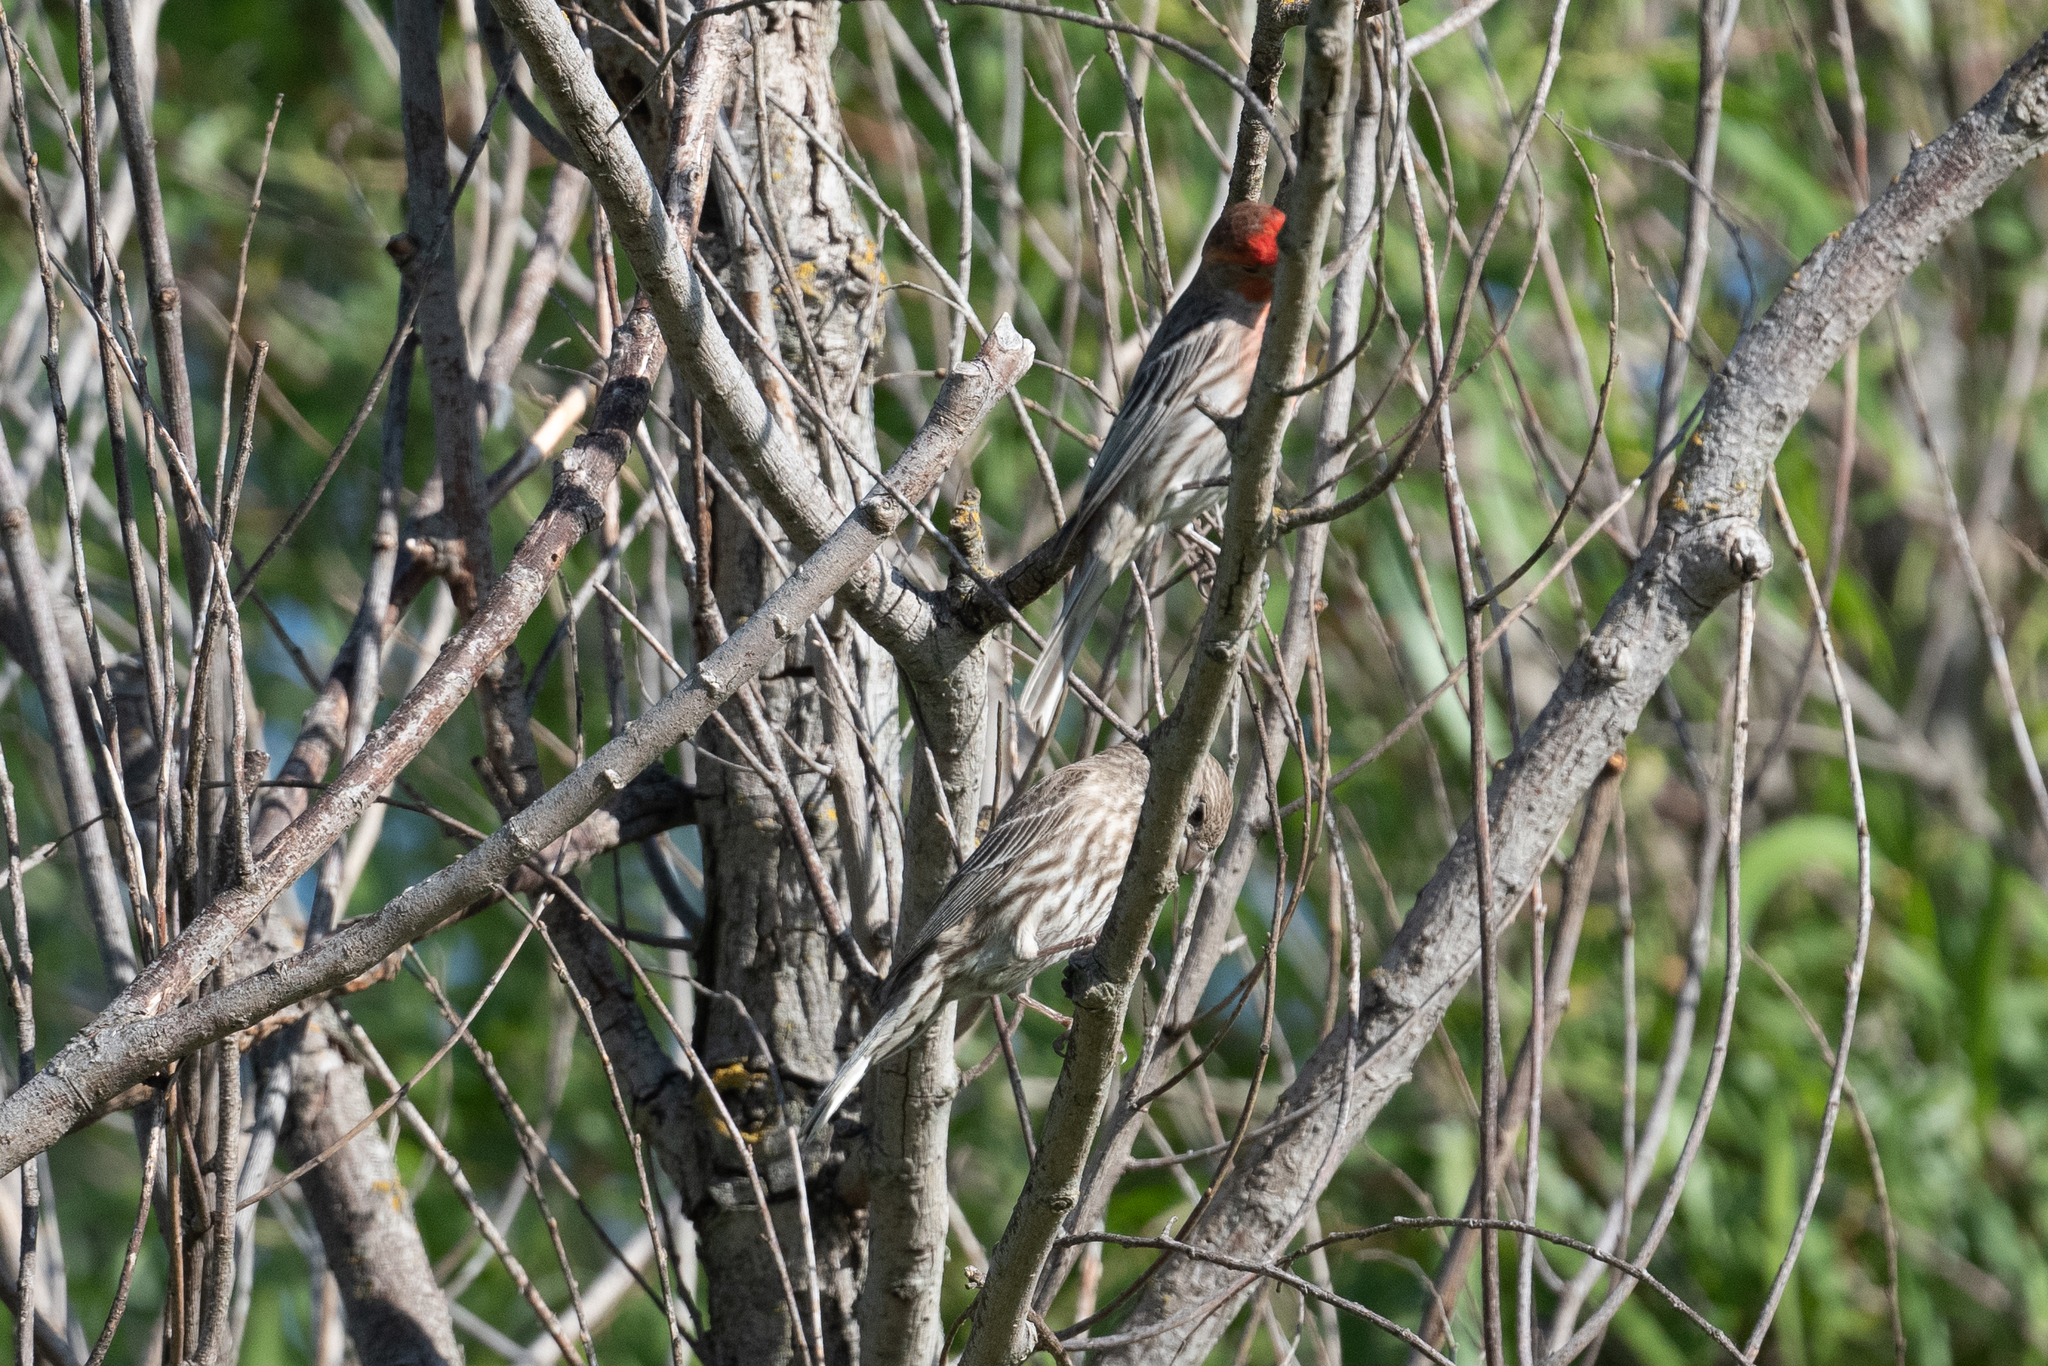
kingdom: Animalia
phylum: Chordata
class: Aves
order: Passeriformes
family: Fringillidae
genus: Haemorhous
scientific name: Haemorhous mexicanus
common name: House finch
